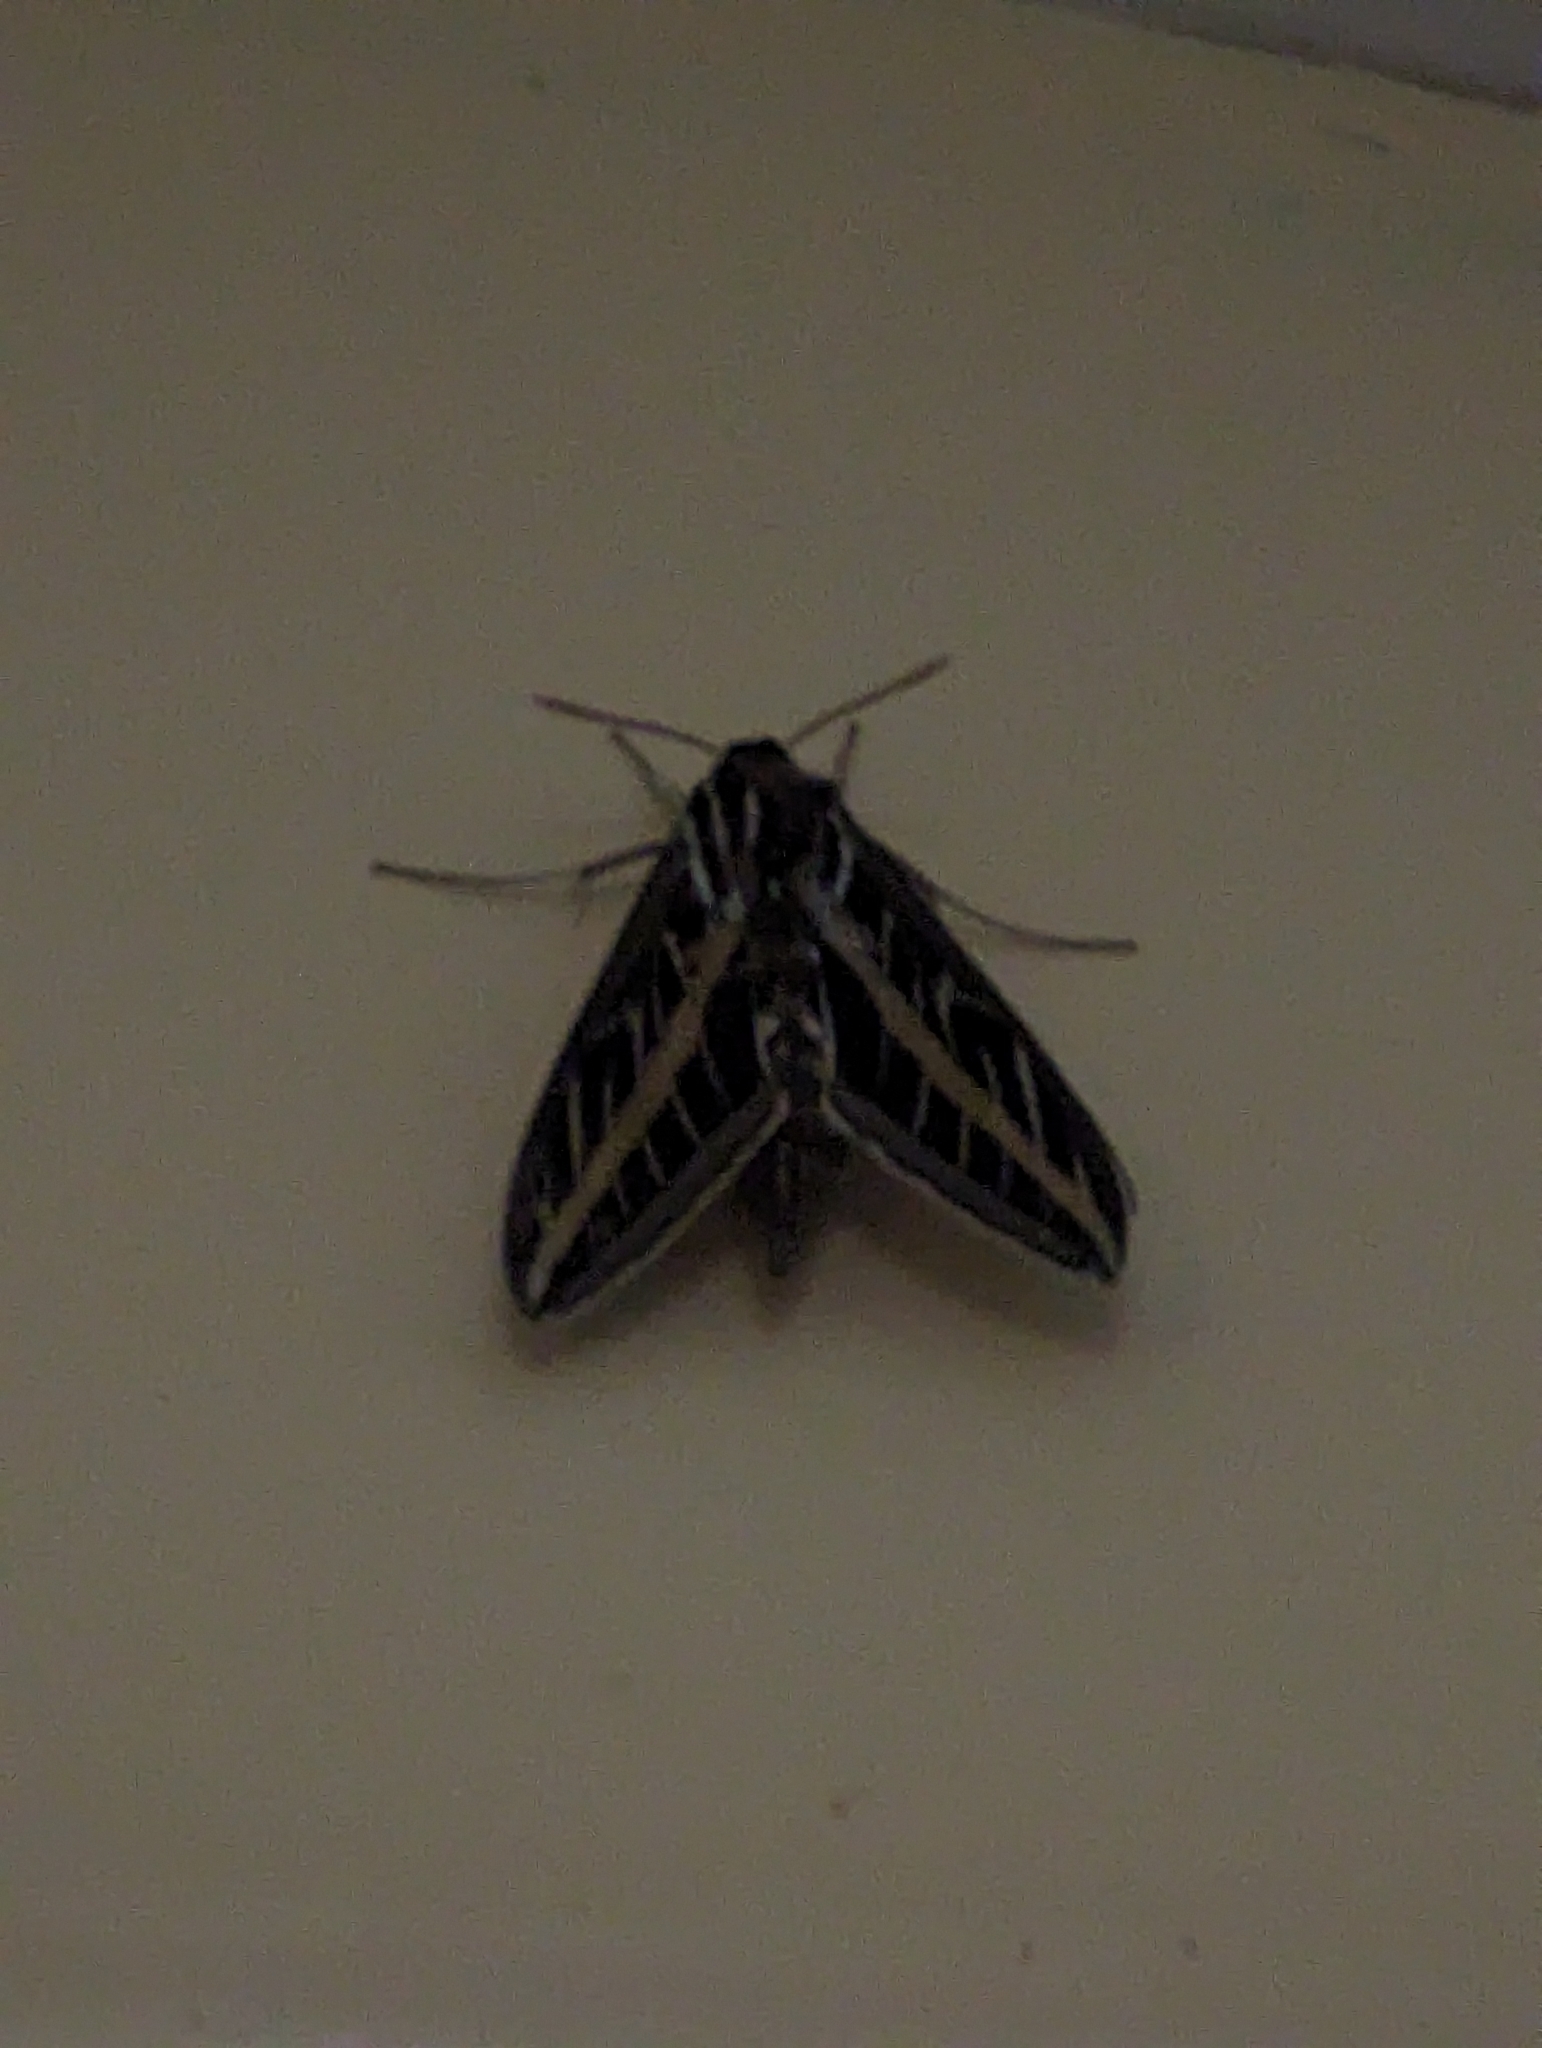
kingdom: Animalia
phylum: Arthropoda
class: Insecta
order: Lepidoptera
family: Sphingidae
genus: Hyles
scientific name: Hyles lineata
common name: White-lined sphinx
